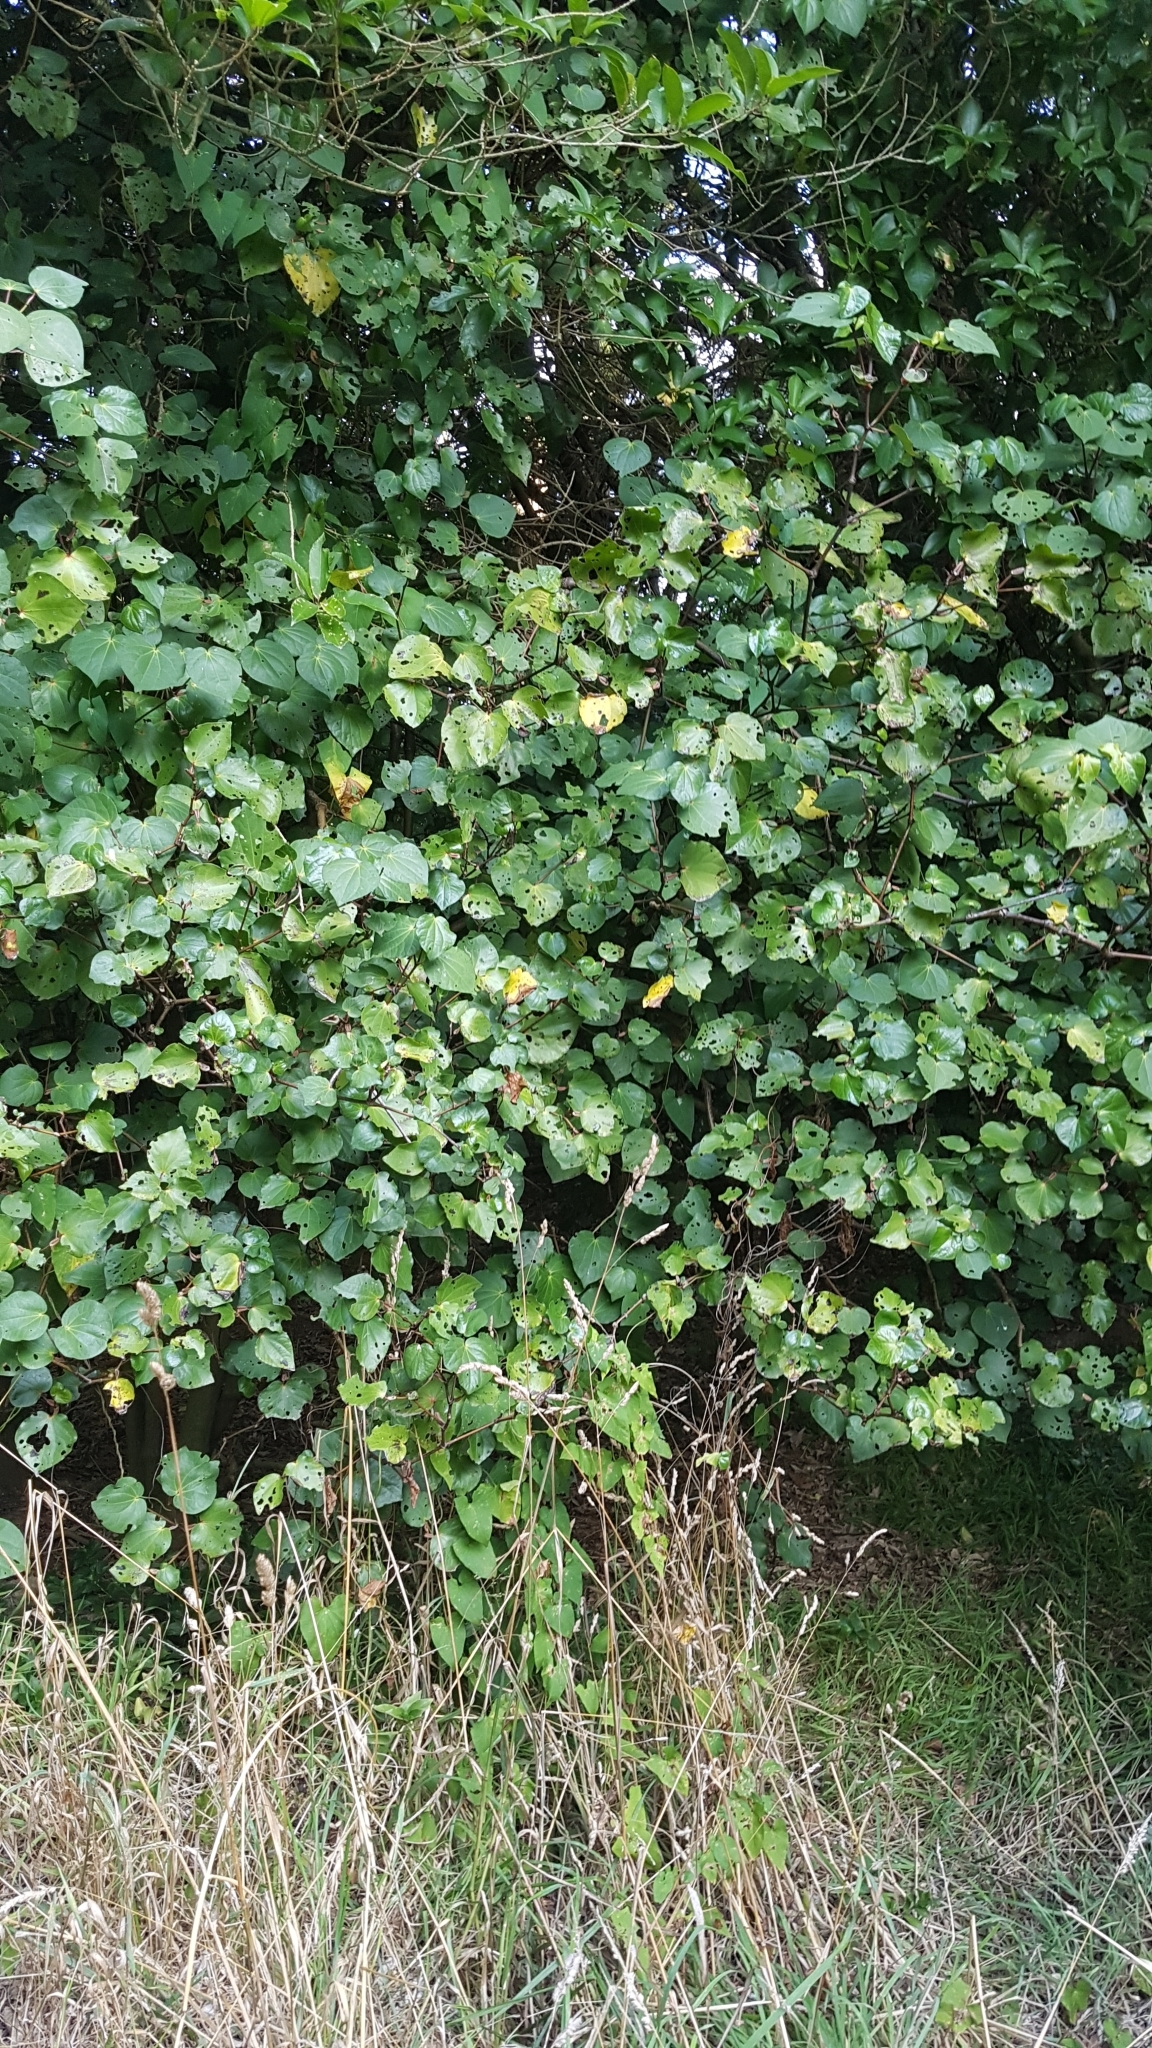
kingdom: Plantae
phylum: Tracheophyta
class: Magnoliopsida
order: Piperales
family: Piperaceae
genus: Macropiper
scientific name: Macropiper excelsum
